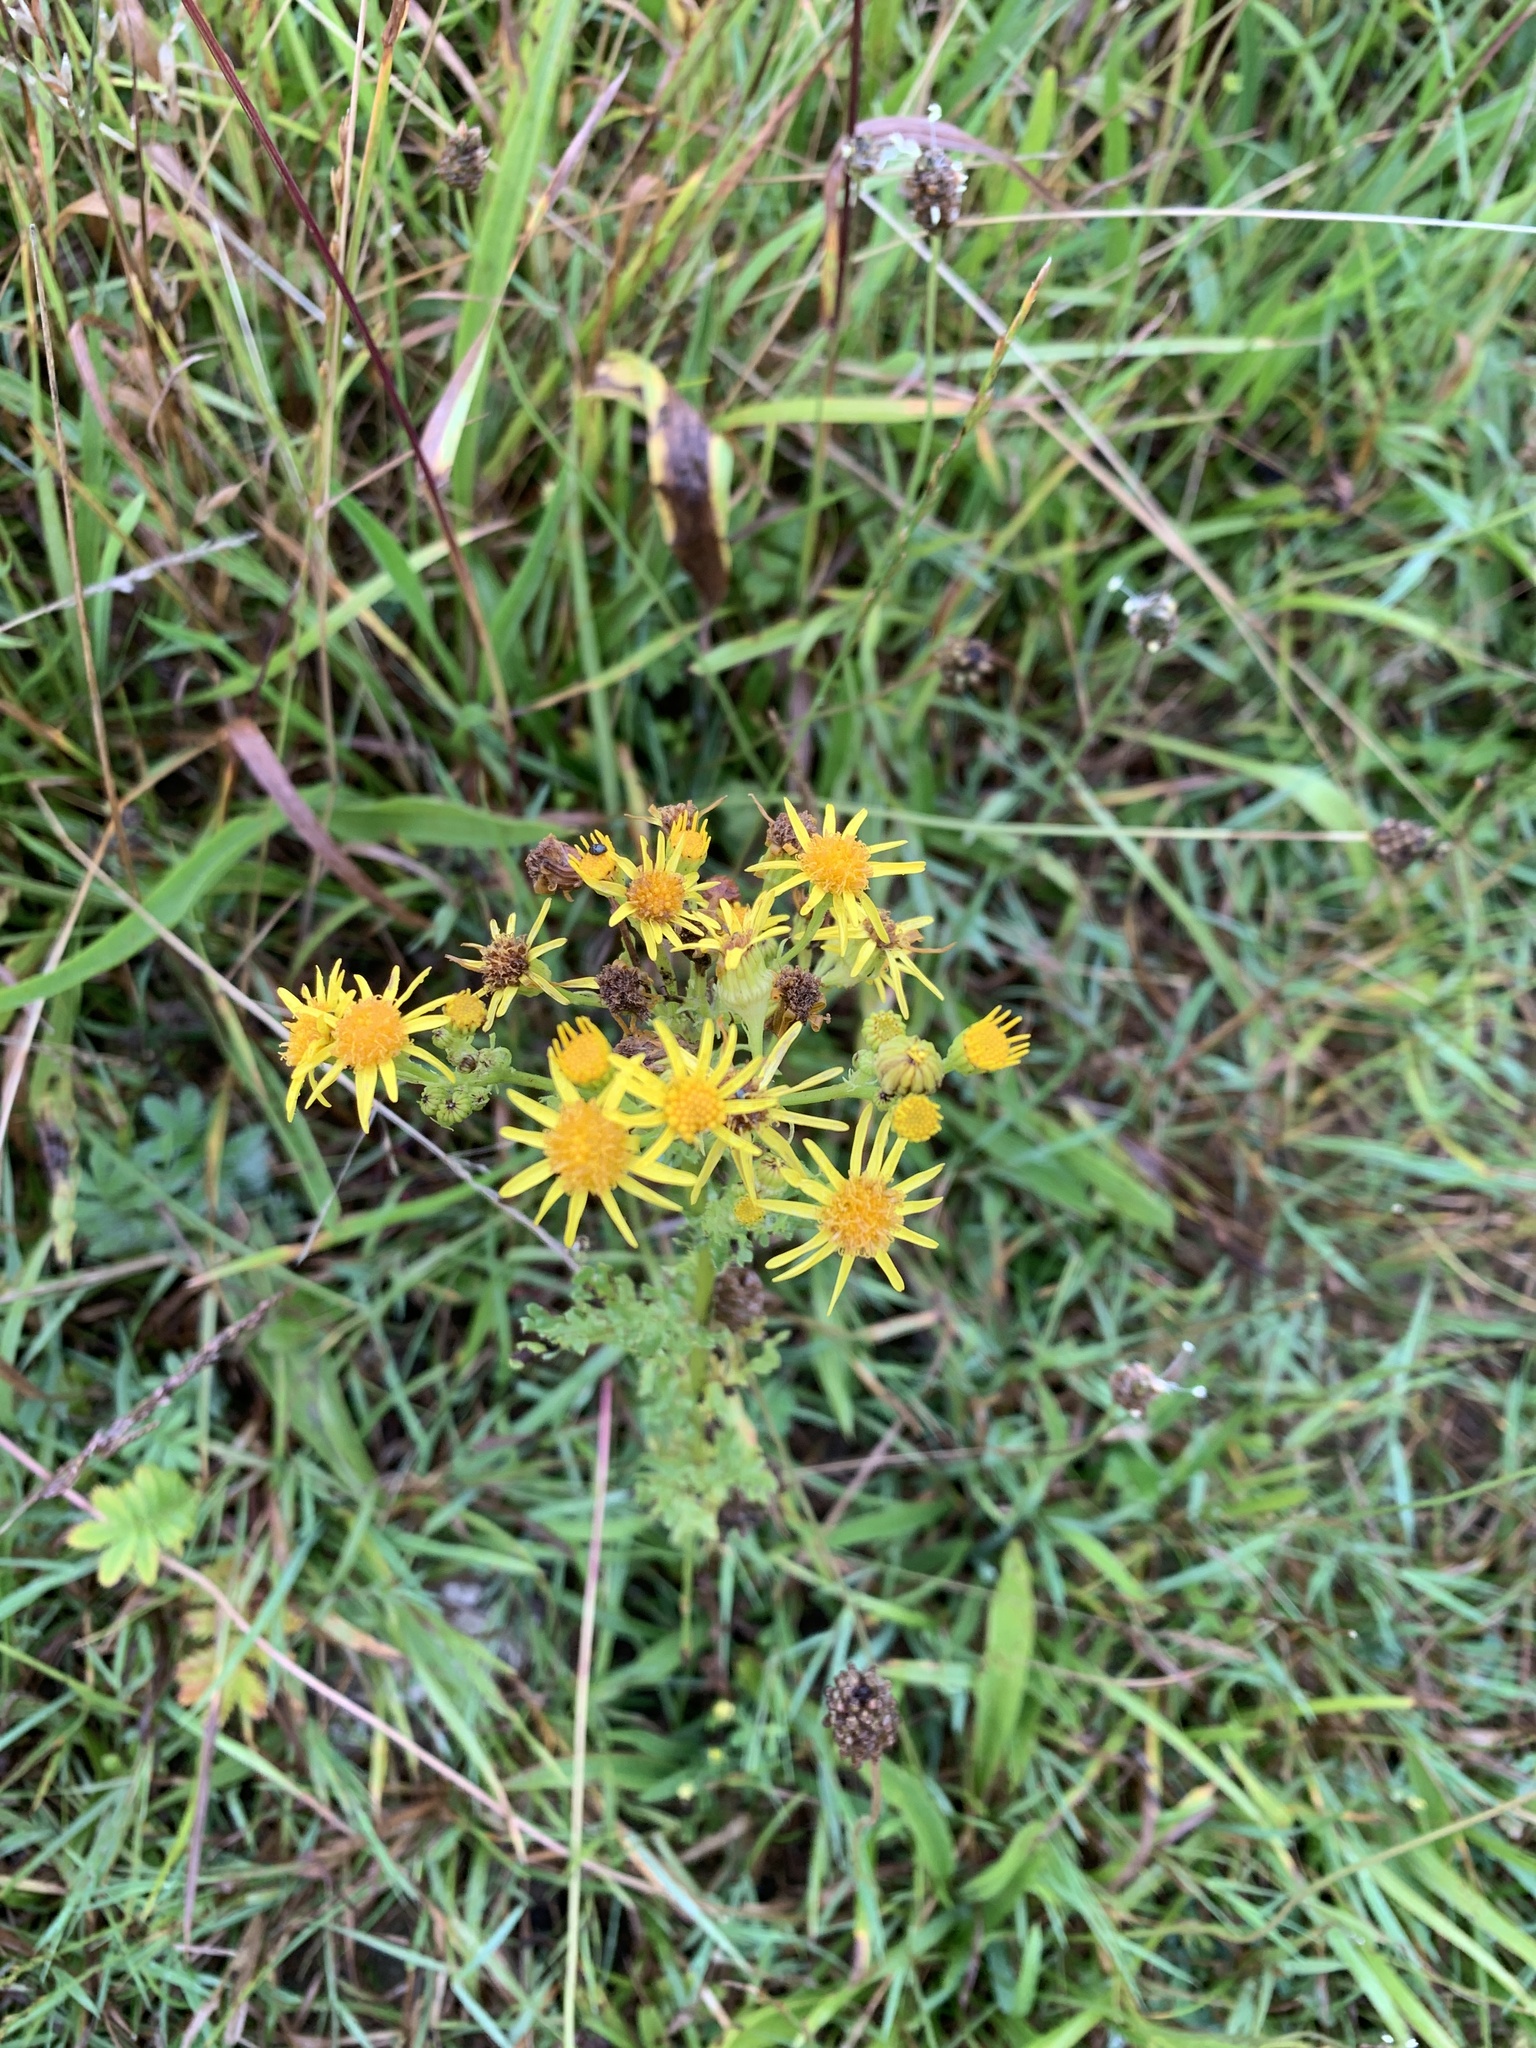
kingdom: Plantae
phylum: Tracheophyta
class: Magnoliopsida
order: Asterales
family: Asteraceae
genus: Jacobaea
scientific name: Jacobaea vulgaris
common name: Stinking willie
